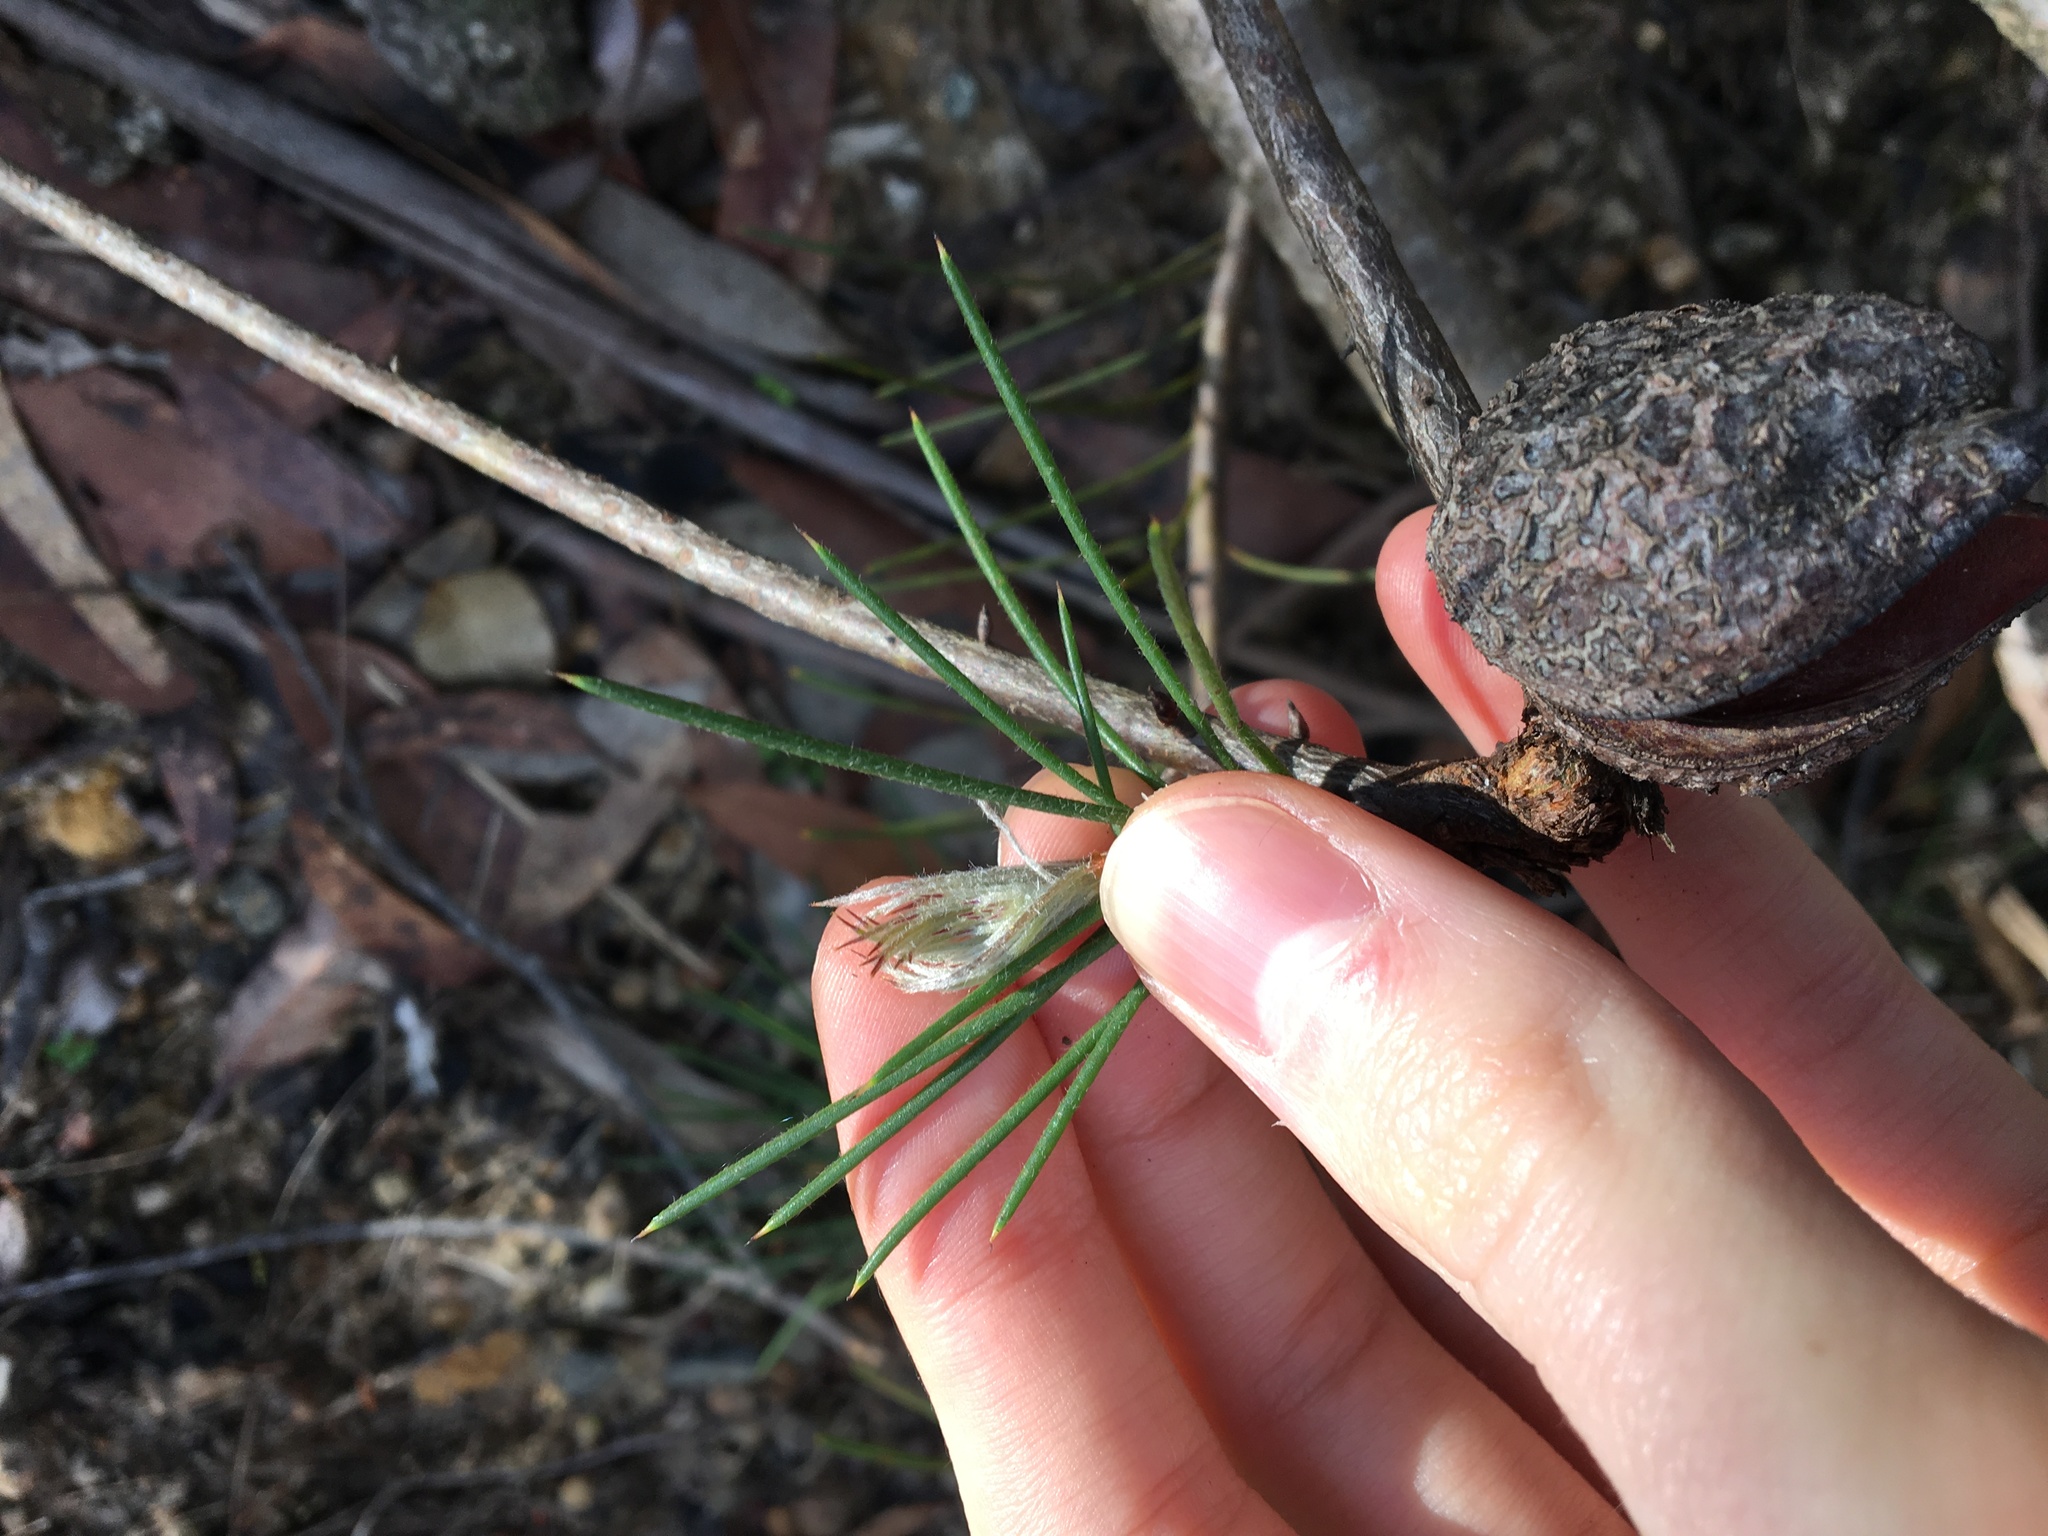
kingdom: Plantae
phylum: Tracheophyta
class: Magnoliopsida
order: Proteales
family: Proteaceae
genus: Hakea
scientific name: Hakea gibbosa
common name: Rock hakea
